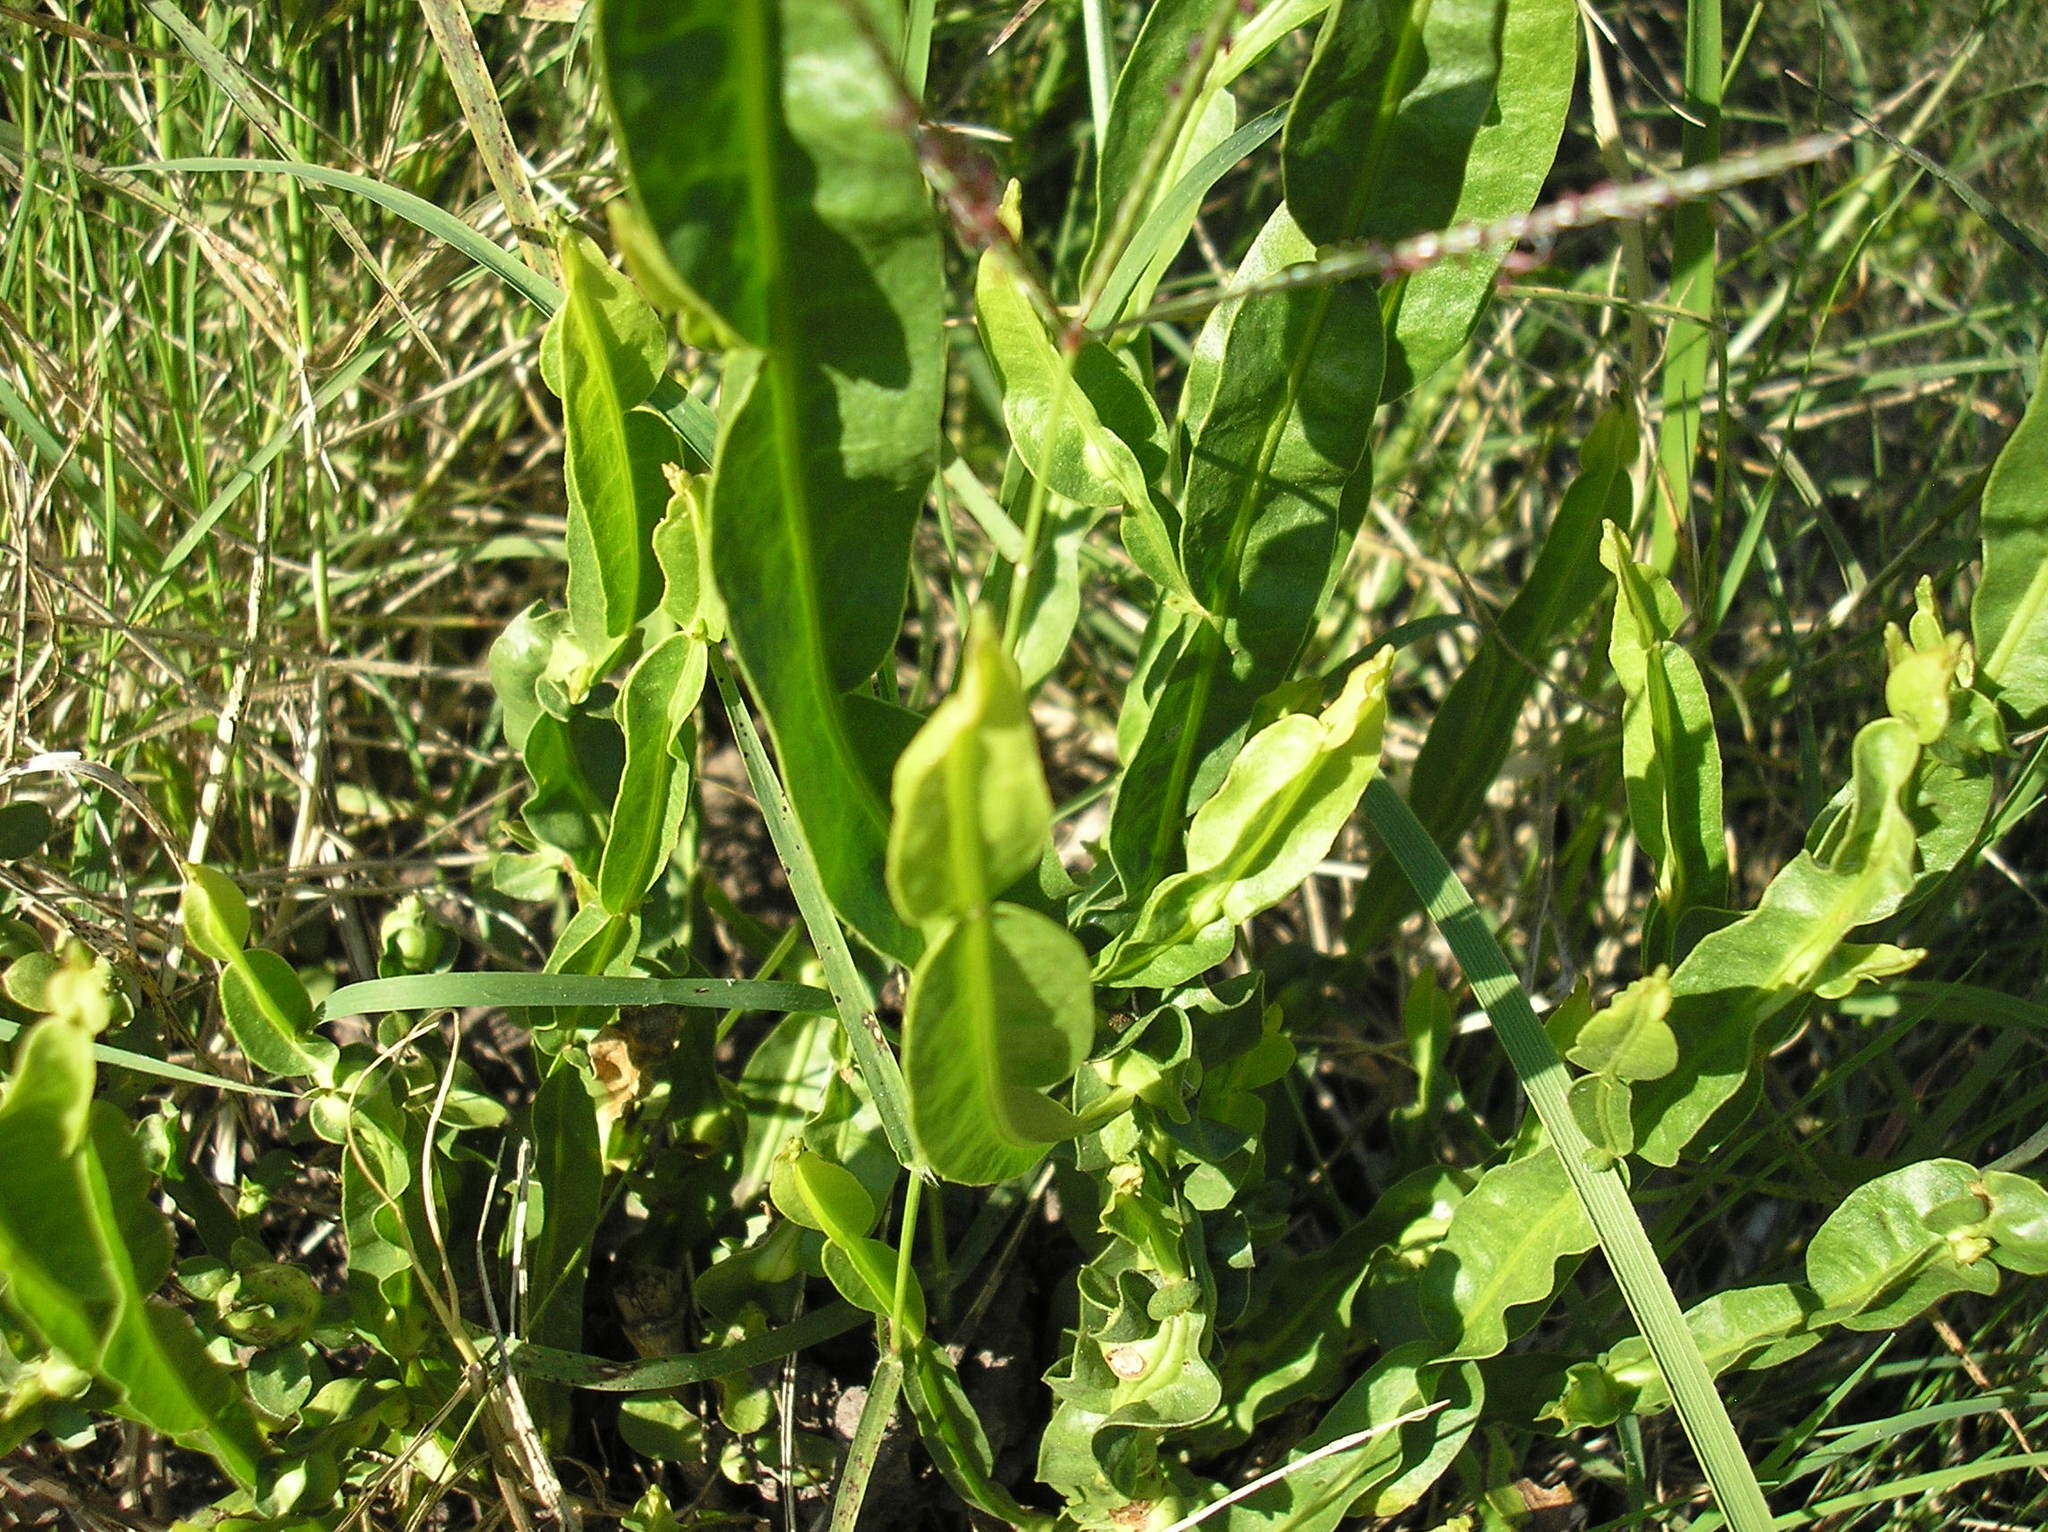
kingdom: Plantae
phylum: Tracheophyta
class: Magnoliopsida
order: Asterales
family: Asteraceae
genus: Baccharis
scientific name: Baccharis trimera
